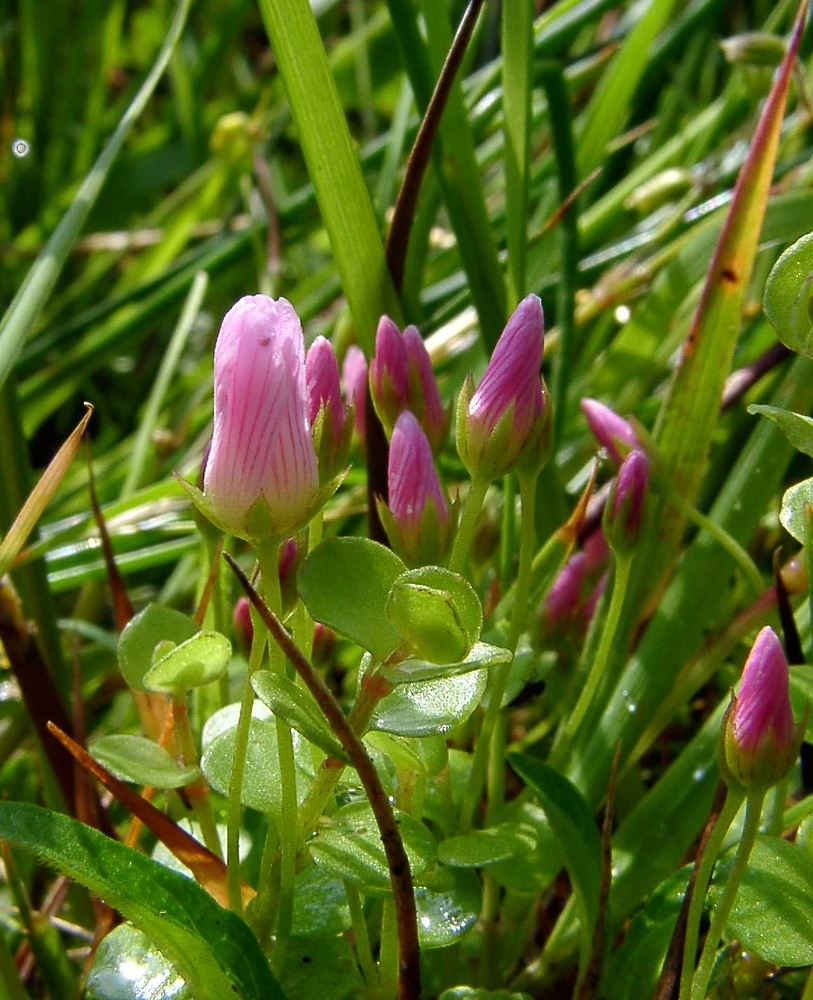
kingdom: Plantae
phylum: Tracheophyta
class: Magnoliopsida
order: Ericales
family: Primulaceae
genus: Lysimachia
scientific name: Lysimachia tenella
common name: European bog pimpernel
